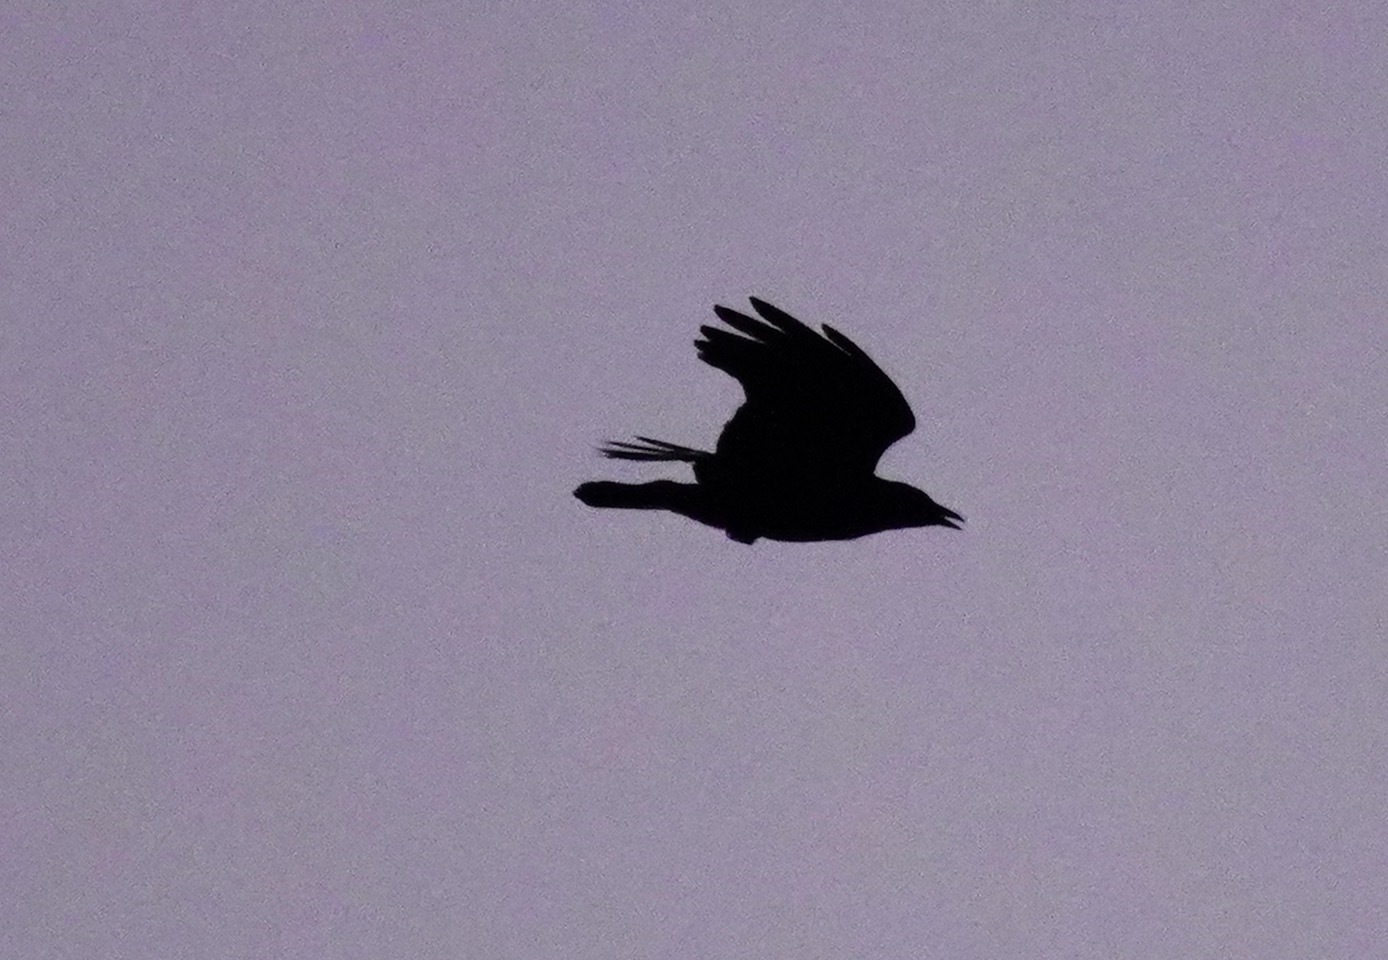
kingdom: Animalia
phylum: Chordata
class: Aves
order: Passeriformes
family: Corvidae
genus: Corvus
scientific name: Corvus brachyrhynchos
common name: American crow
